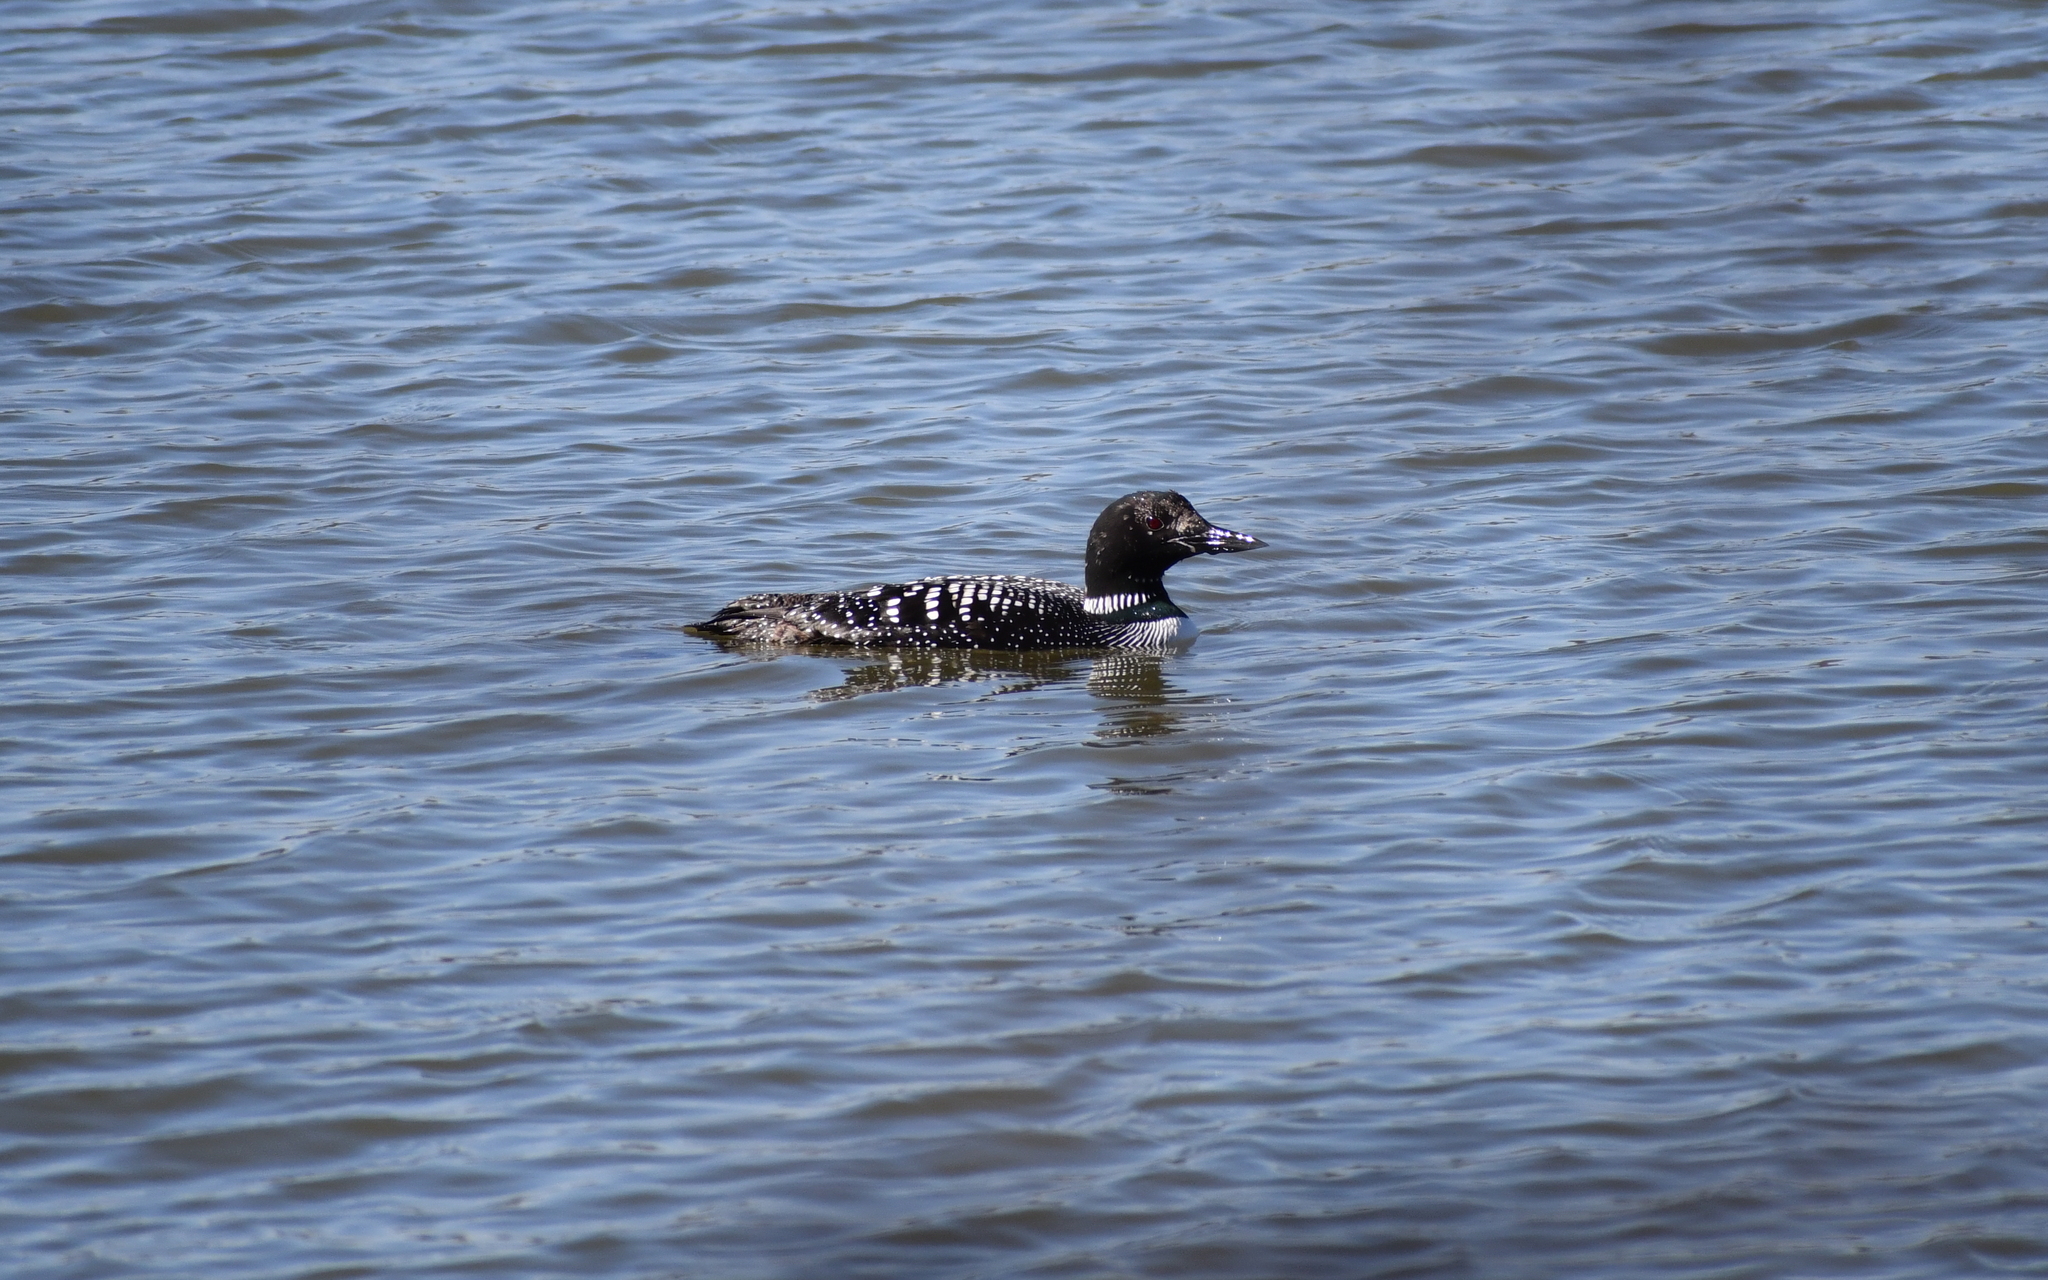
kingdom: Animalia
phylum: Chordata
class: Aves
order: Gaviiformes
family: Gaviidae
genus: Gavia
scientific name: Gavia immer
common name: Common loon
